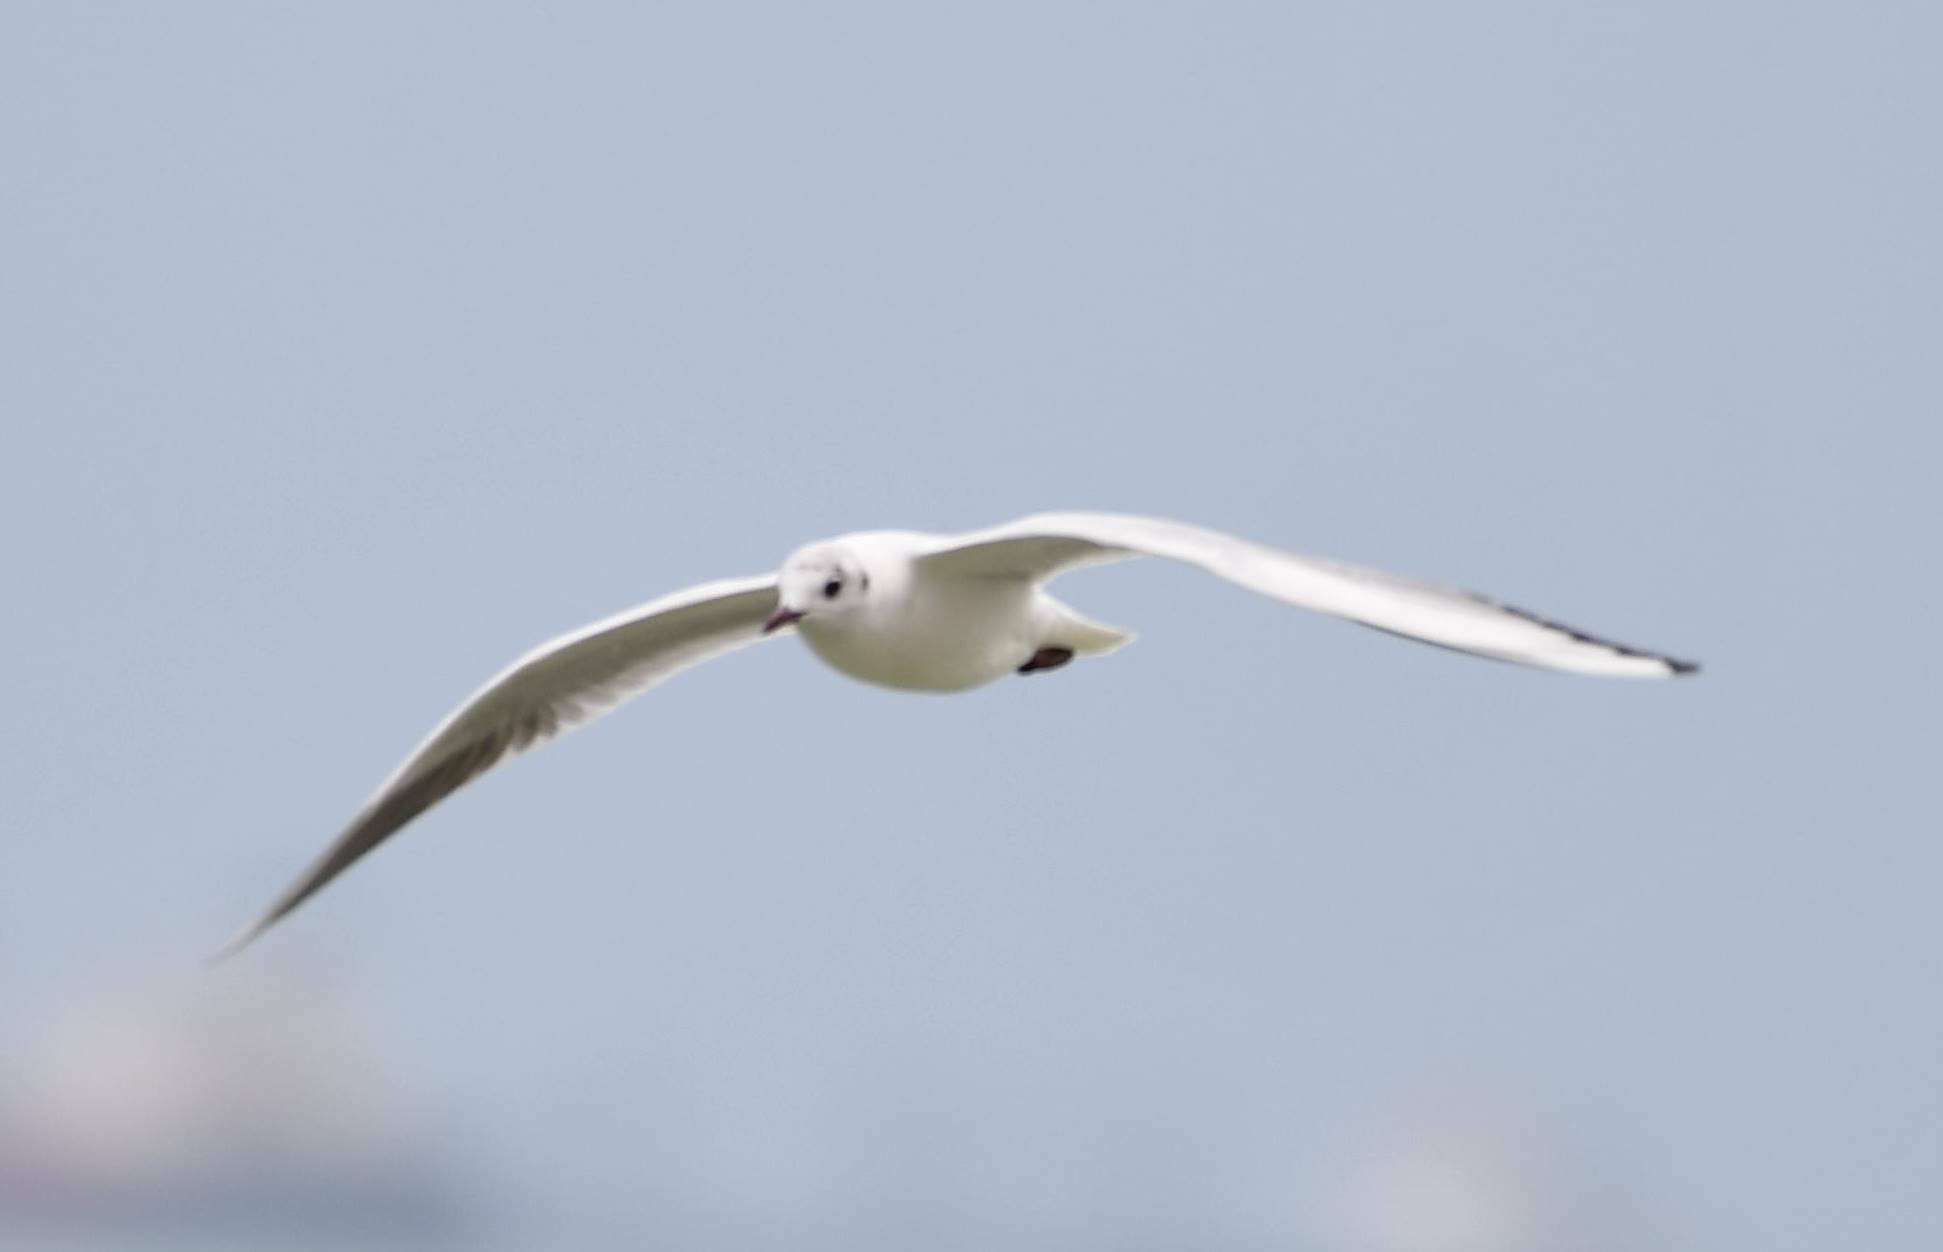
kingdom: Animalia
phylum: Chordata
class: Aves
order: Charadriiformes
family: Laridae
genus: Chroicocephalus
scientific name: Chroicocephalus ridibundus
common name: Black-headed gull
